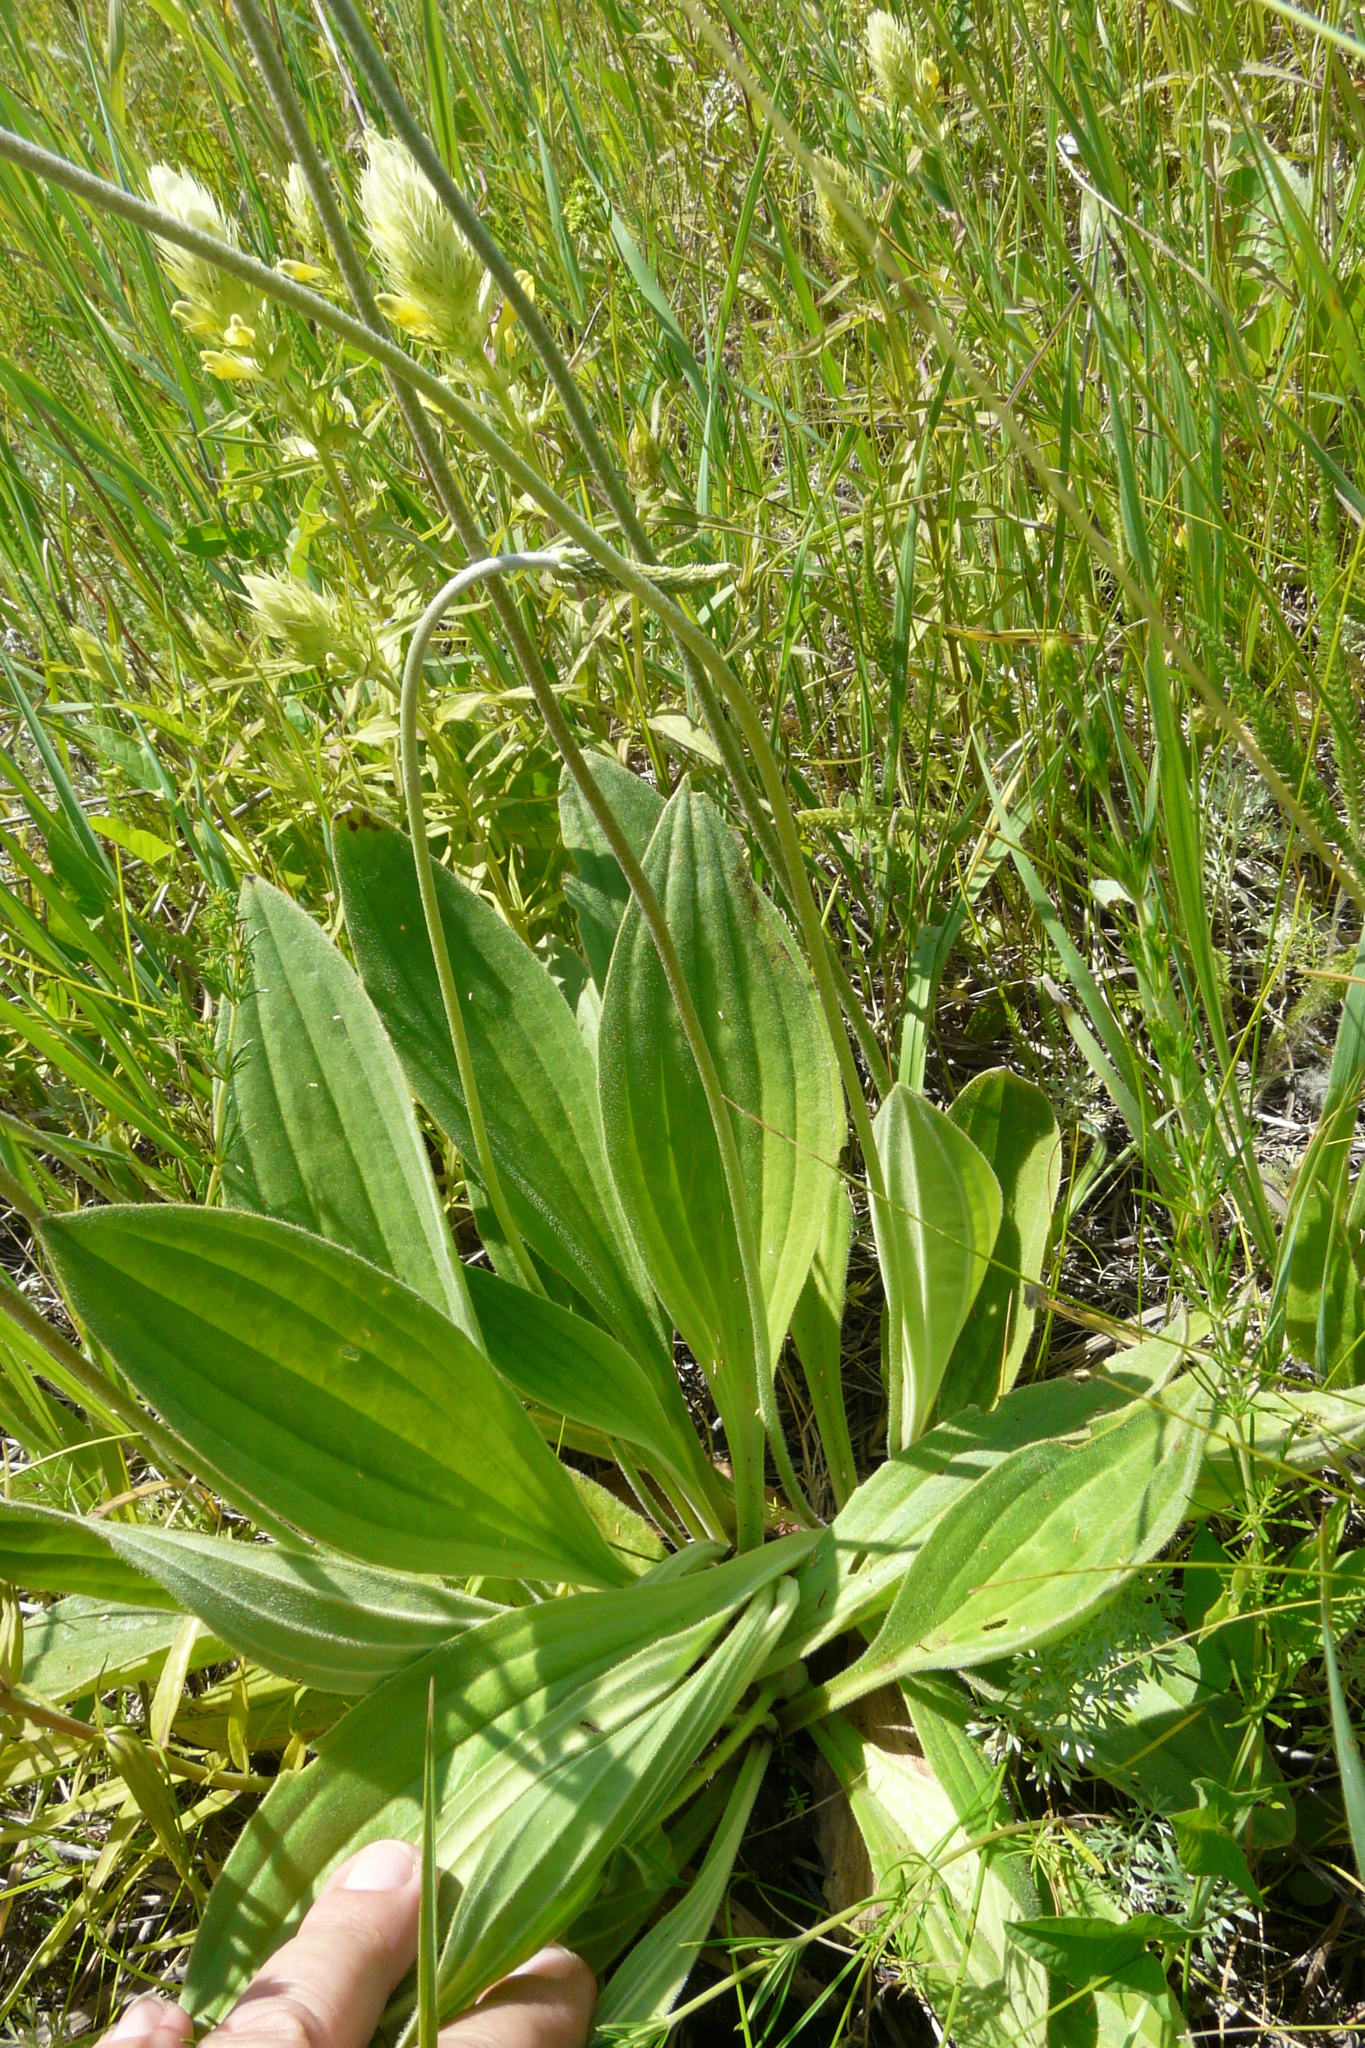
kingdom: Plantae
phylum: Tracheophyta
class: Magnoliopsida
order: Lamiales
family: Plantaginaceae
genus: Plantago
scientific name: Plantago urvillei
